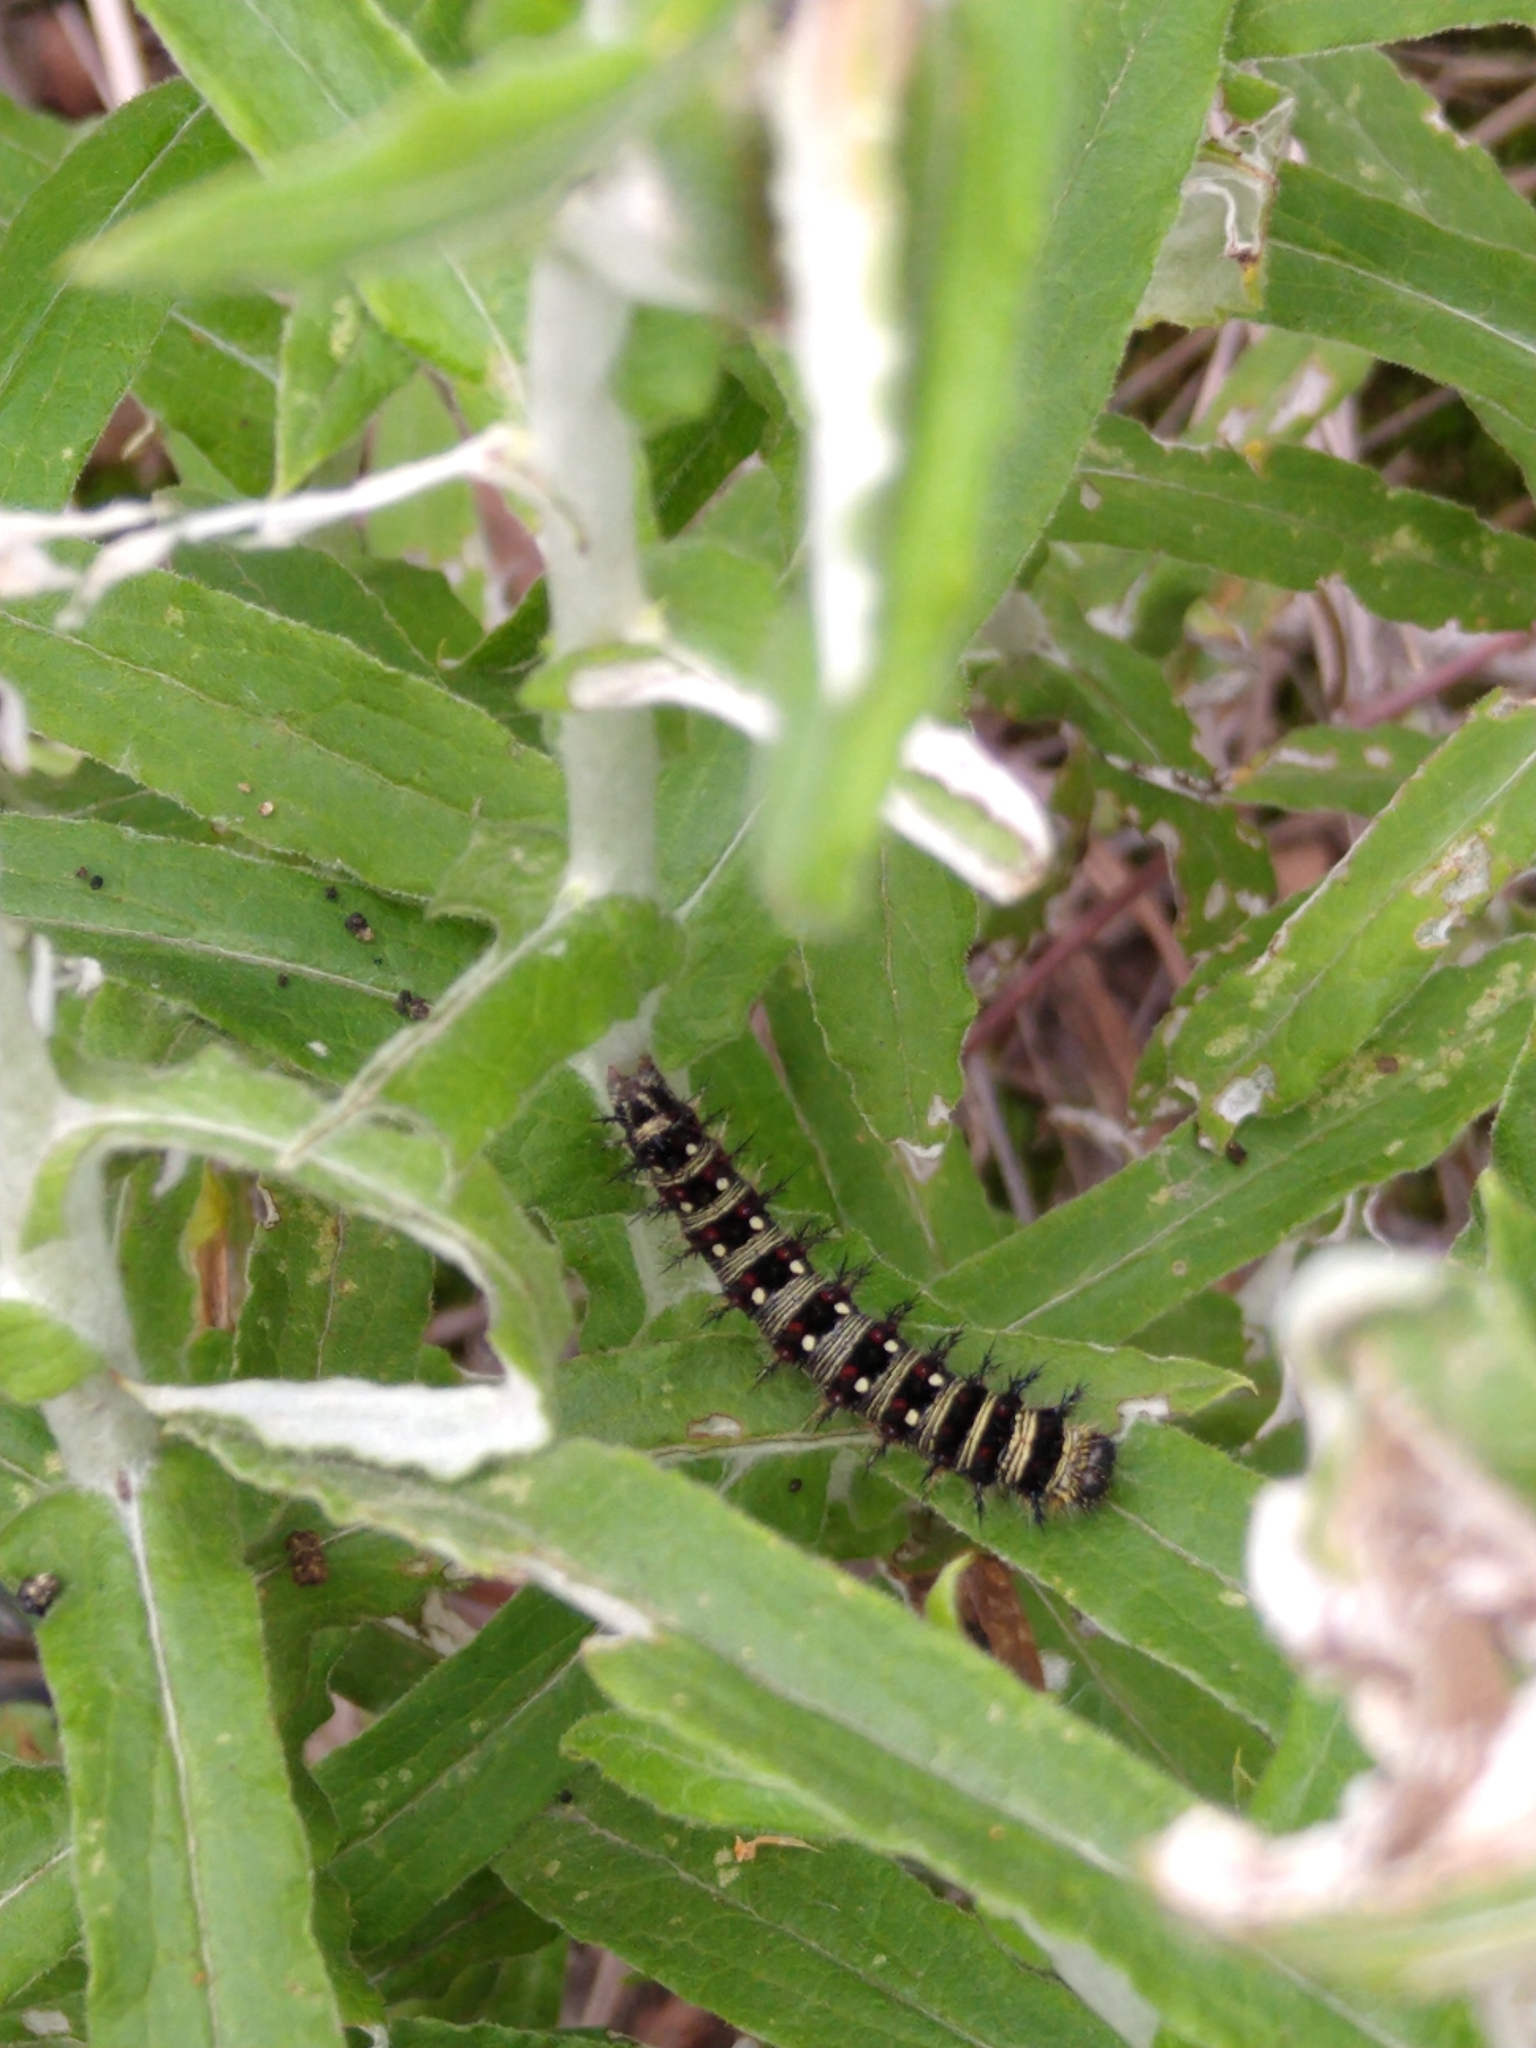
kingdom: Animalia
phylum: Arthropoda
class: Insecta
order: Lepidoptera
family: Nymphalidae
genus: Vanessa
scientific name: Vanessa virginiensis
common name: American lady
